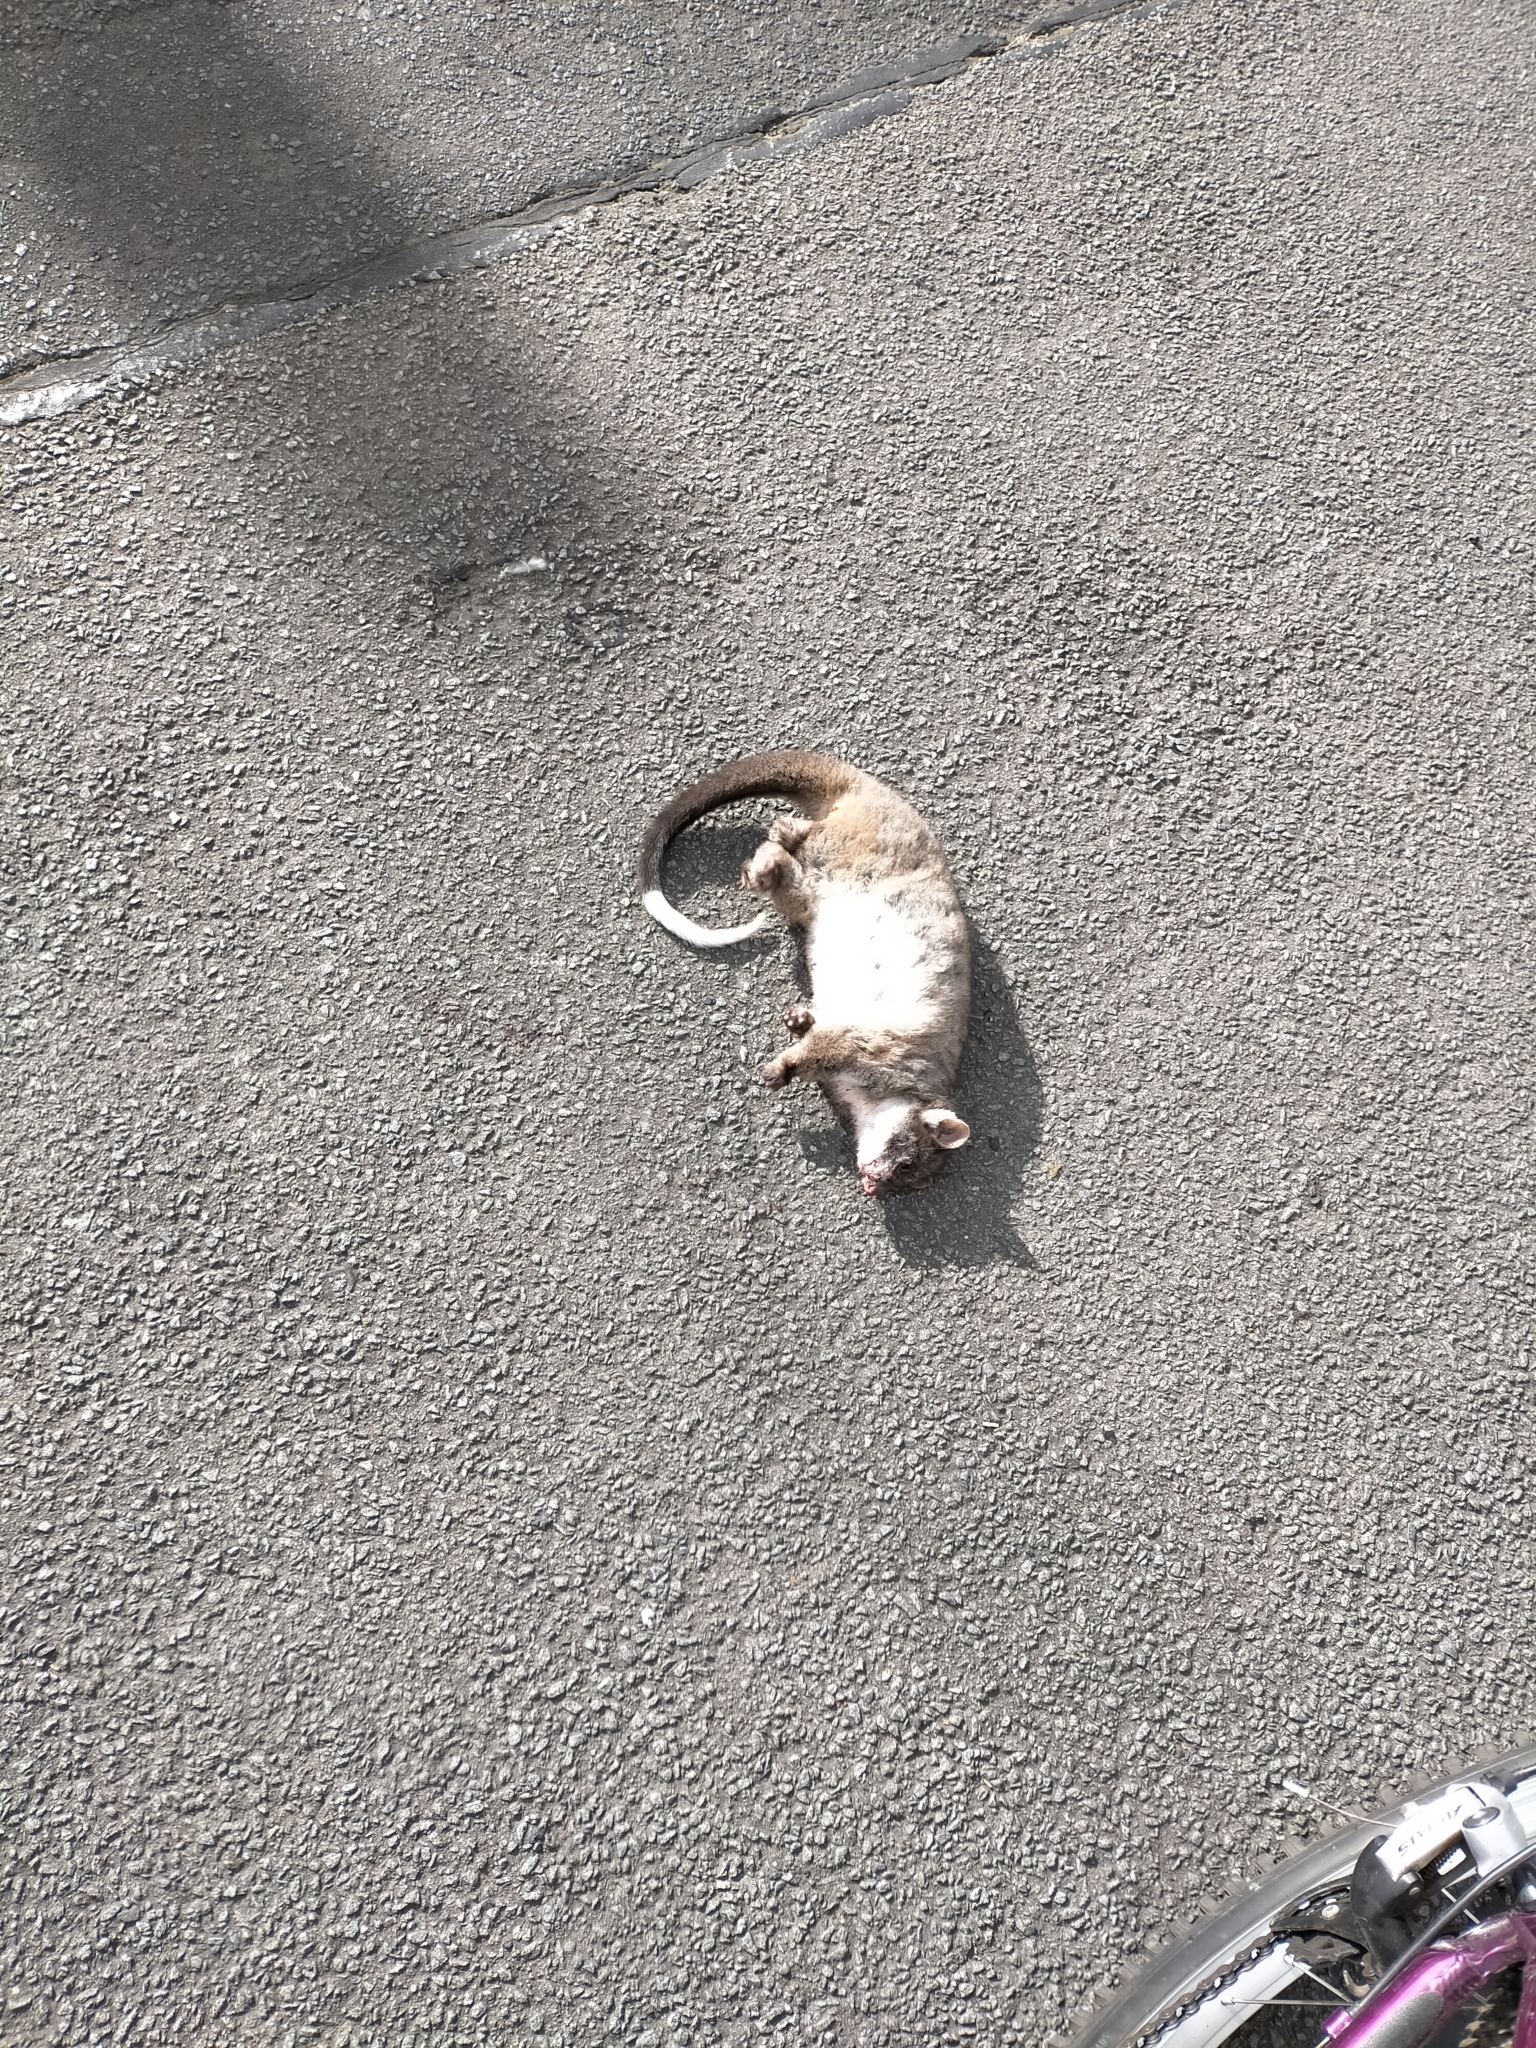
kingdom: Animalia
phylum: Chordata
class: Mammalia
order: Diprotodontia
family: Pseudocheiridae
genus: Pseudocheirus
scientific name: Pseudocheirus peregrinus
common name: Common ringtail possum
